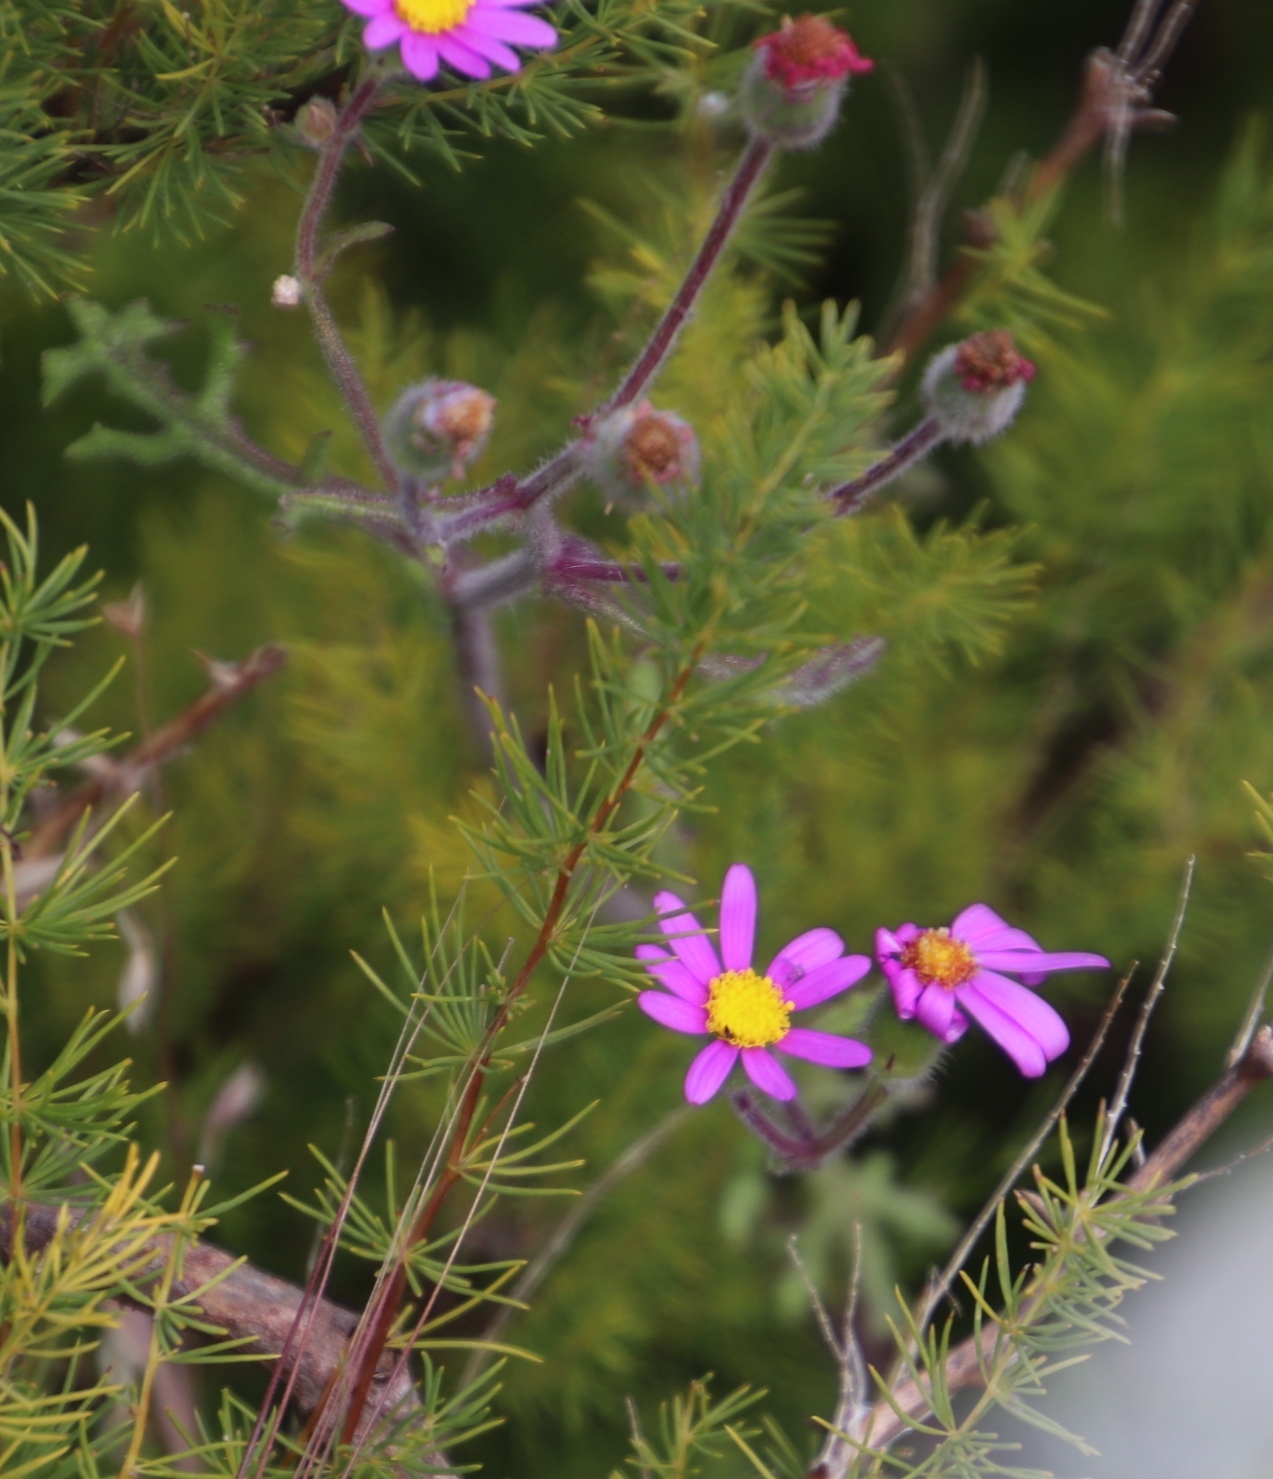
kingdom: Plantae
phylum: Tracheophyta
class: Magnoliopsida
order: Asterales
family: Asteraceae
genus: Senecio
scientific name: Senecio arenarius
